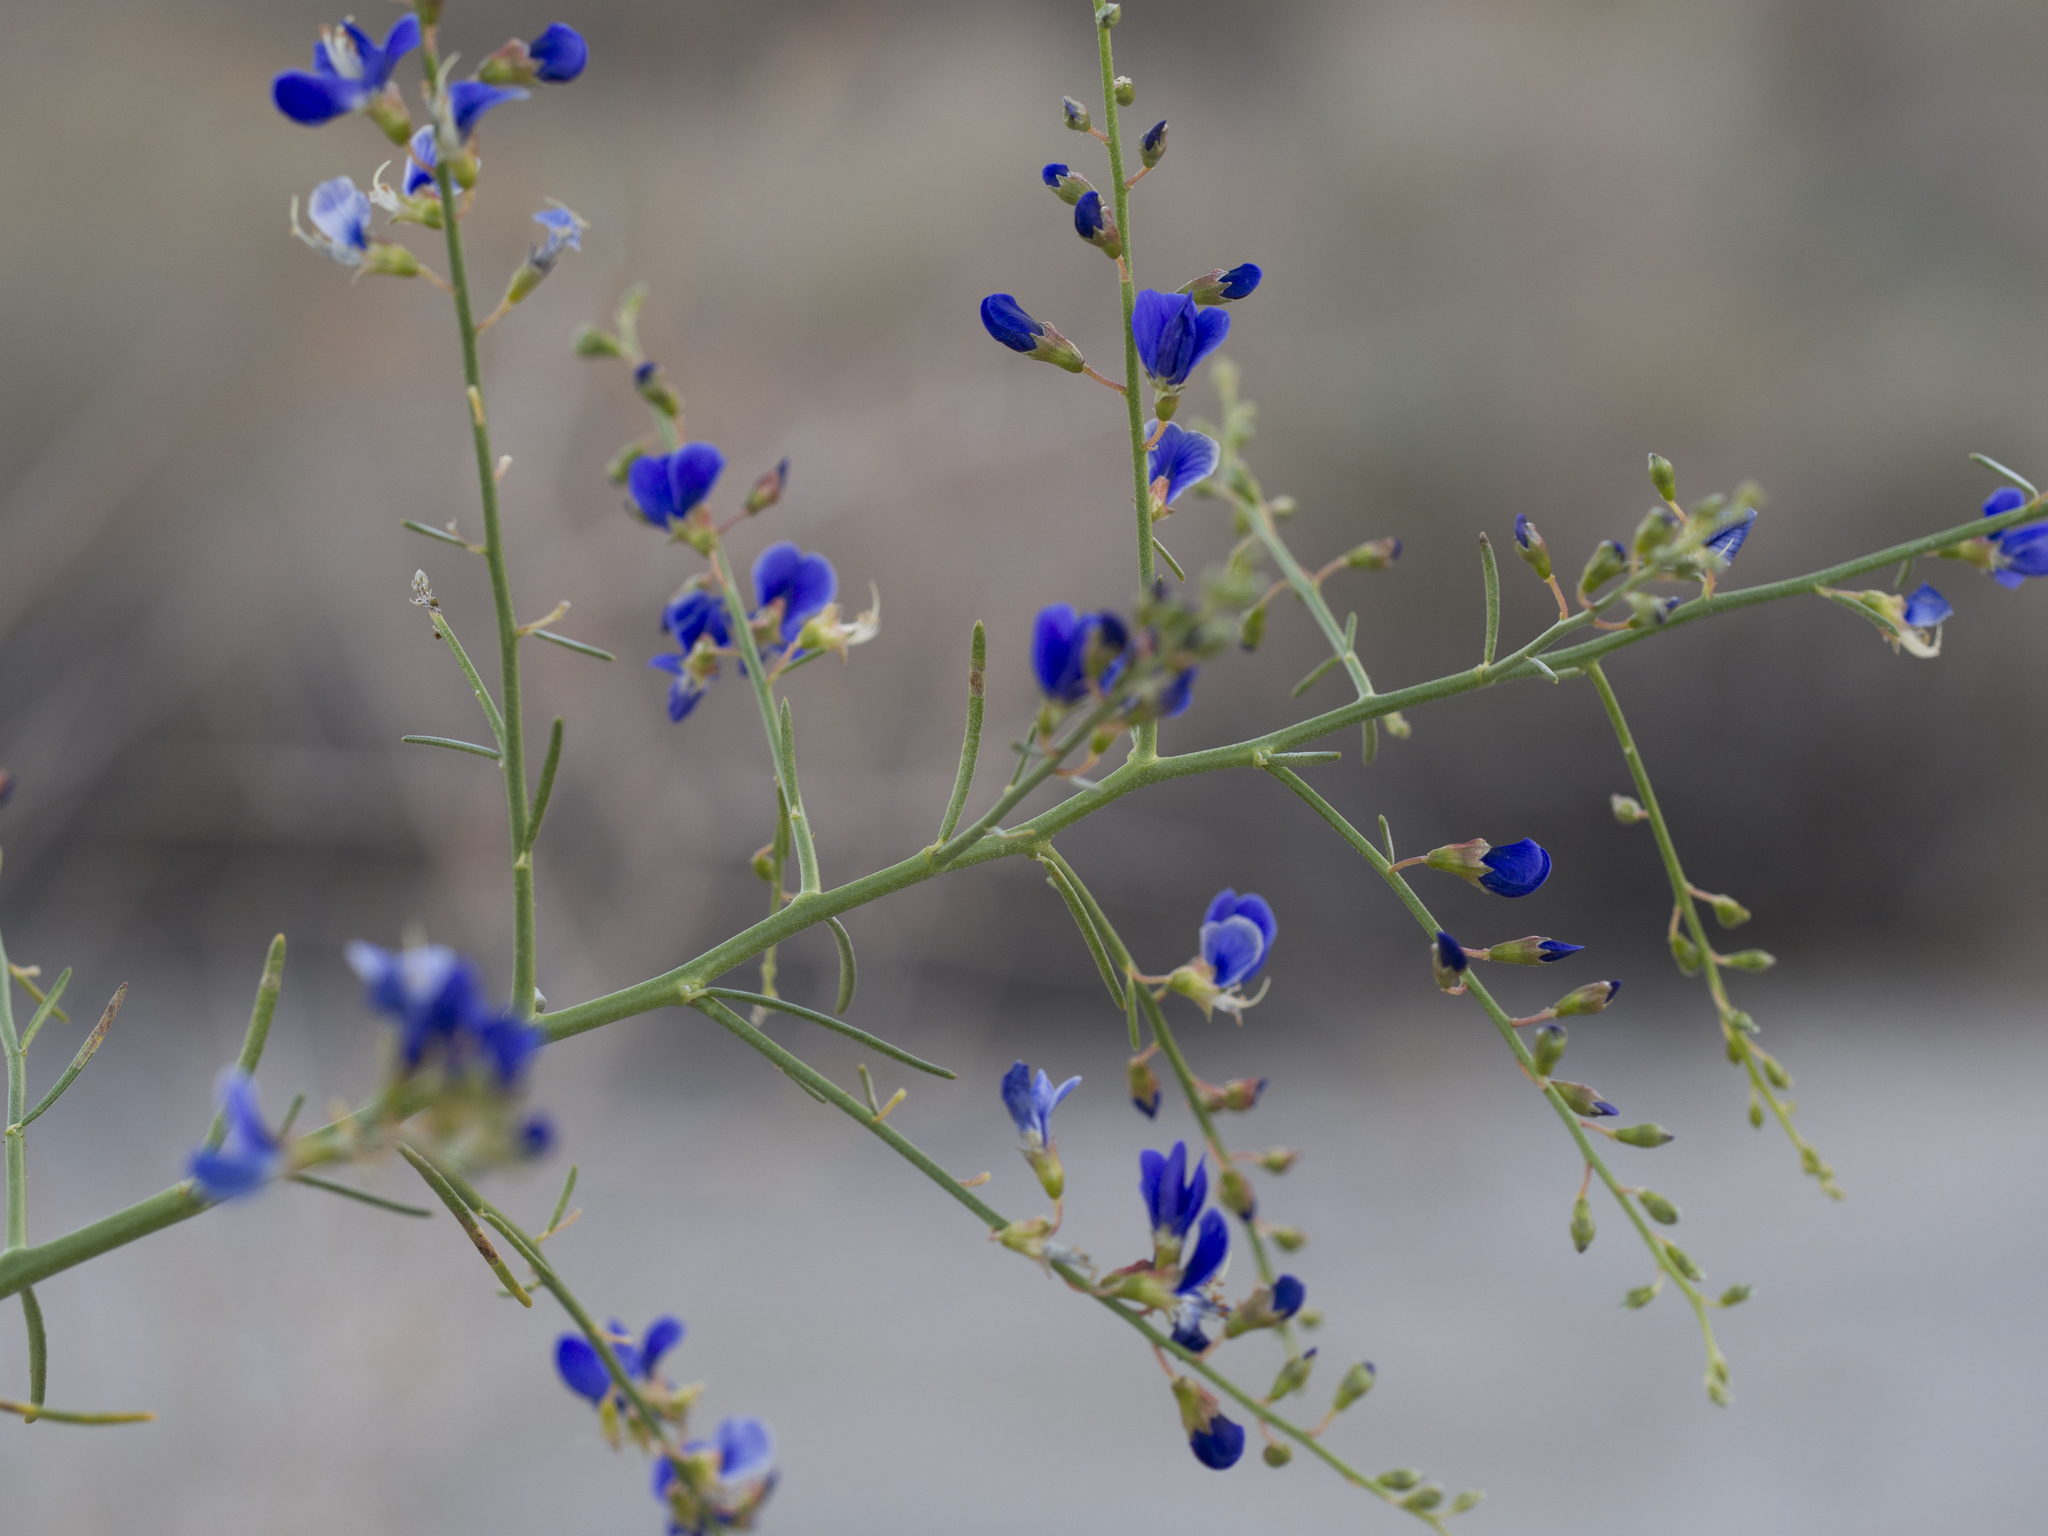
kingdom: Plantae
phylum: Tracheophyta
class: Magnoliopsida
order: Fabales
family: Fabaceae
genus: Psorothamnus
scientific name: Psorothamnus schottii
